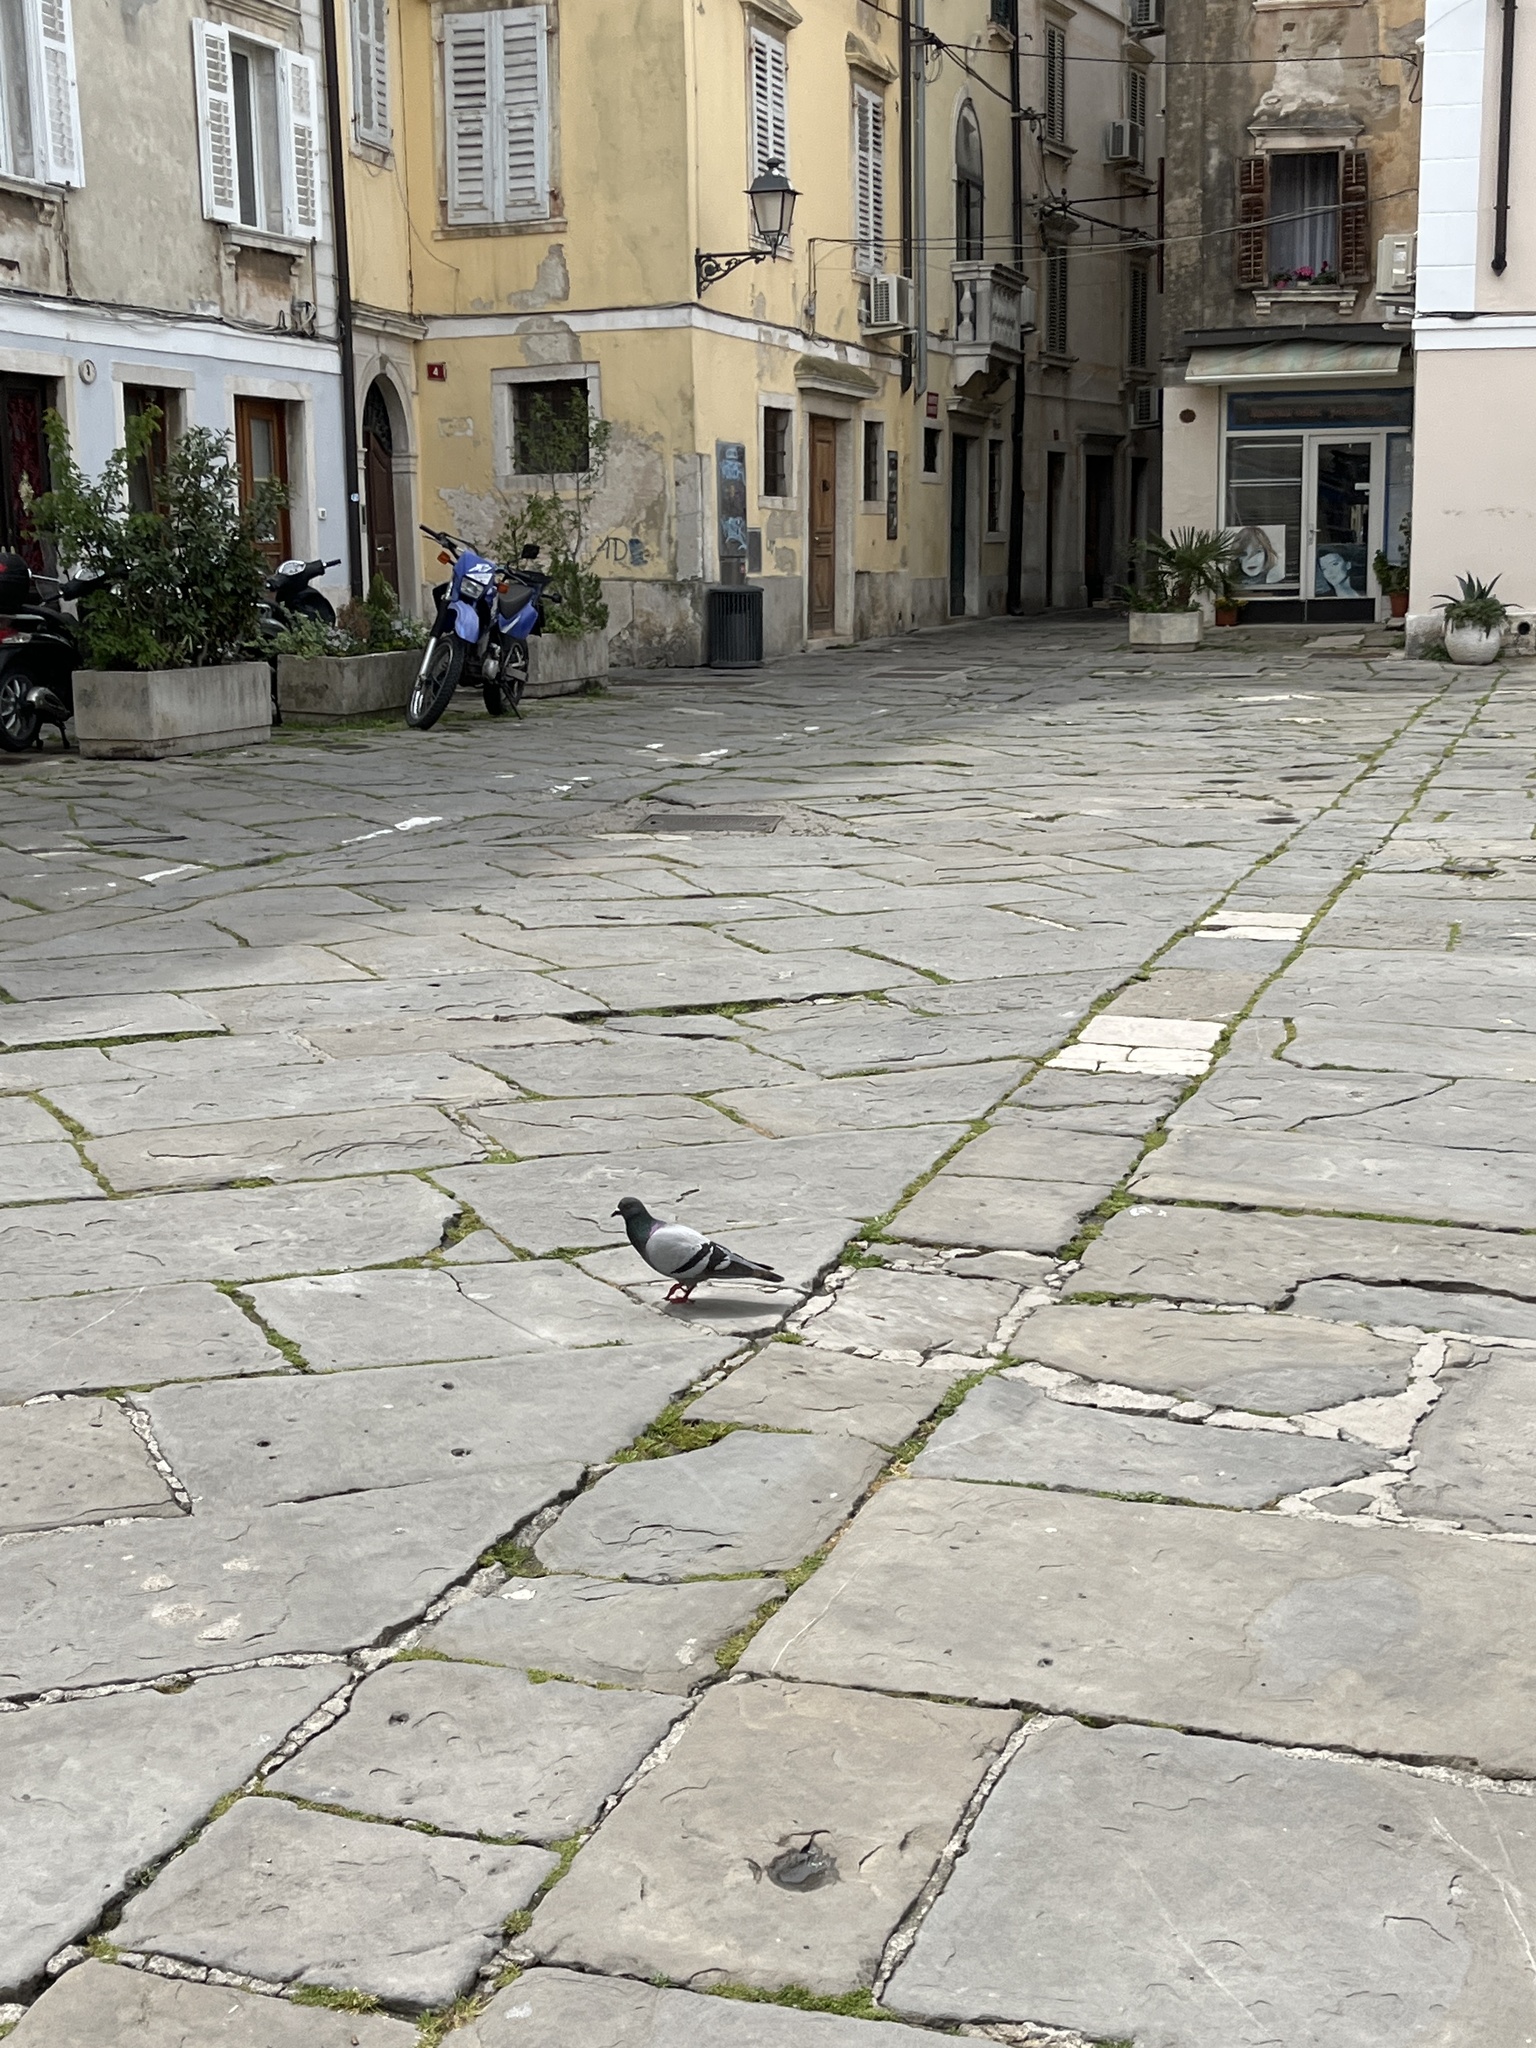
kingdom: Animalia
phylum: Chordata
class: Aves
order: Columbiformes
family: Columbidae
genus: Columba
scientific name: Columba livia
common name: Rock pigeon
